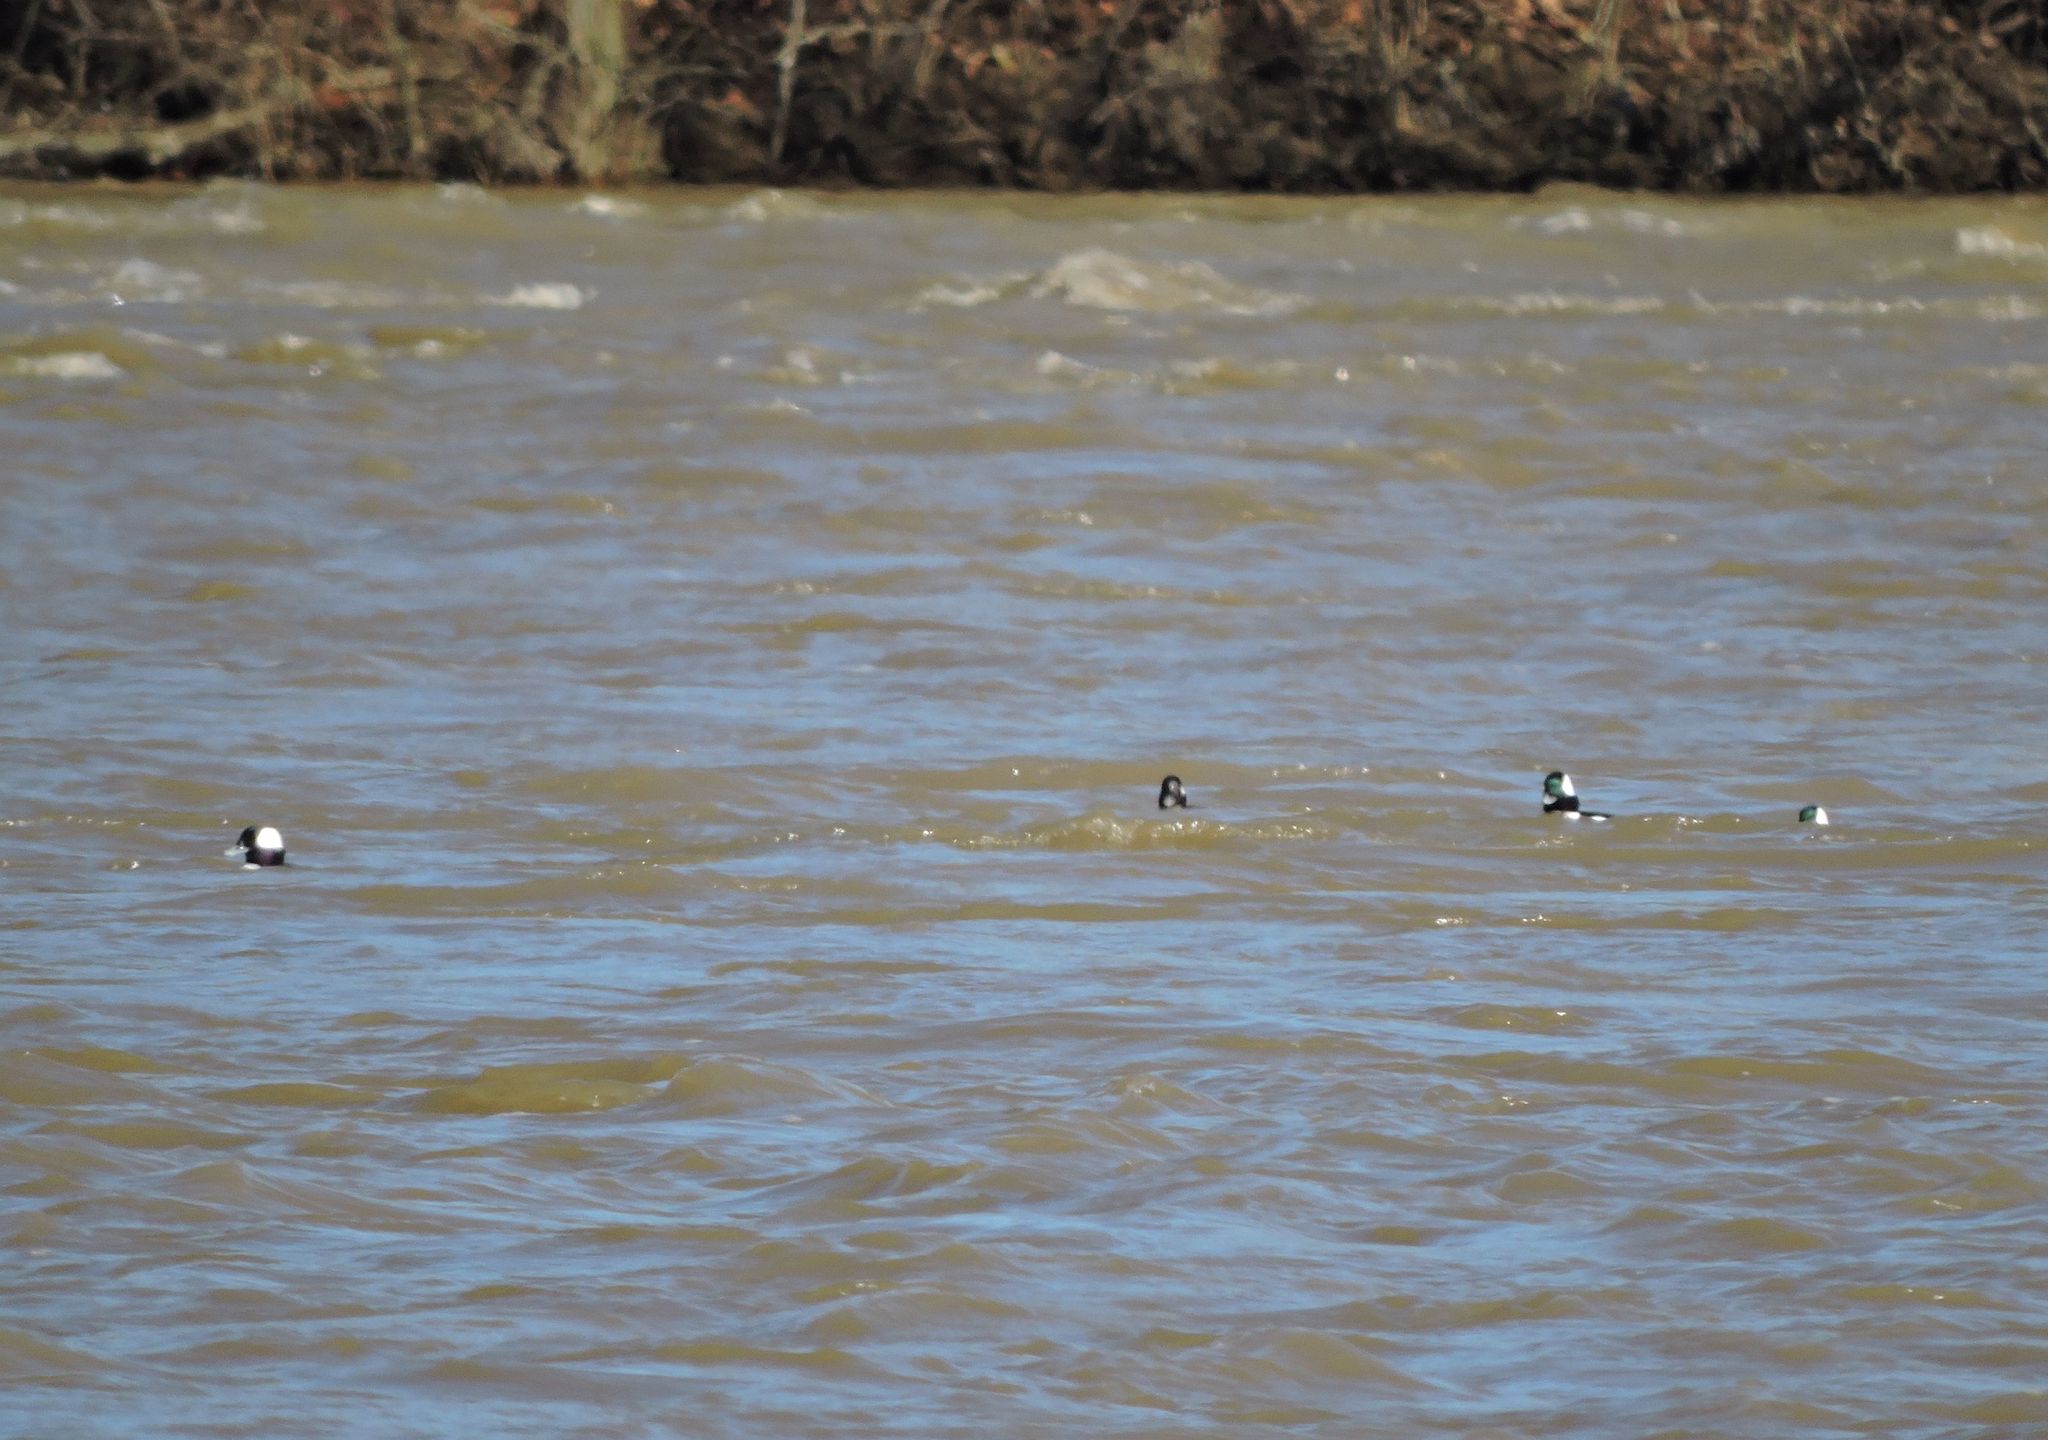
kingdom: Animalia
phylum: Chordata
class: Aves
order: Anseriformes
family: Anatidae
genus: Bucephala
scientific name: Bucephala albeola
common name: Bufflehead
